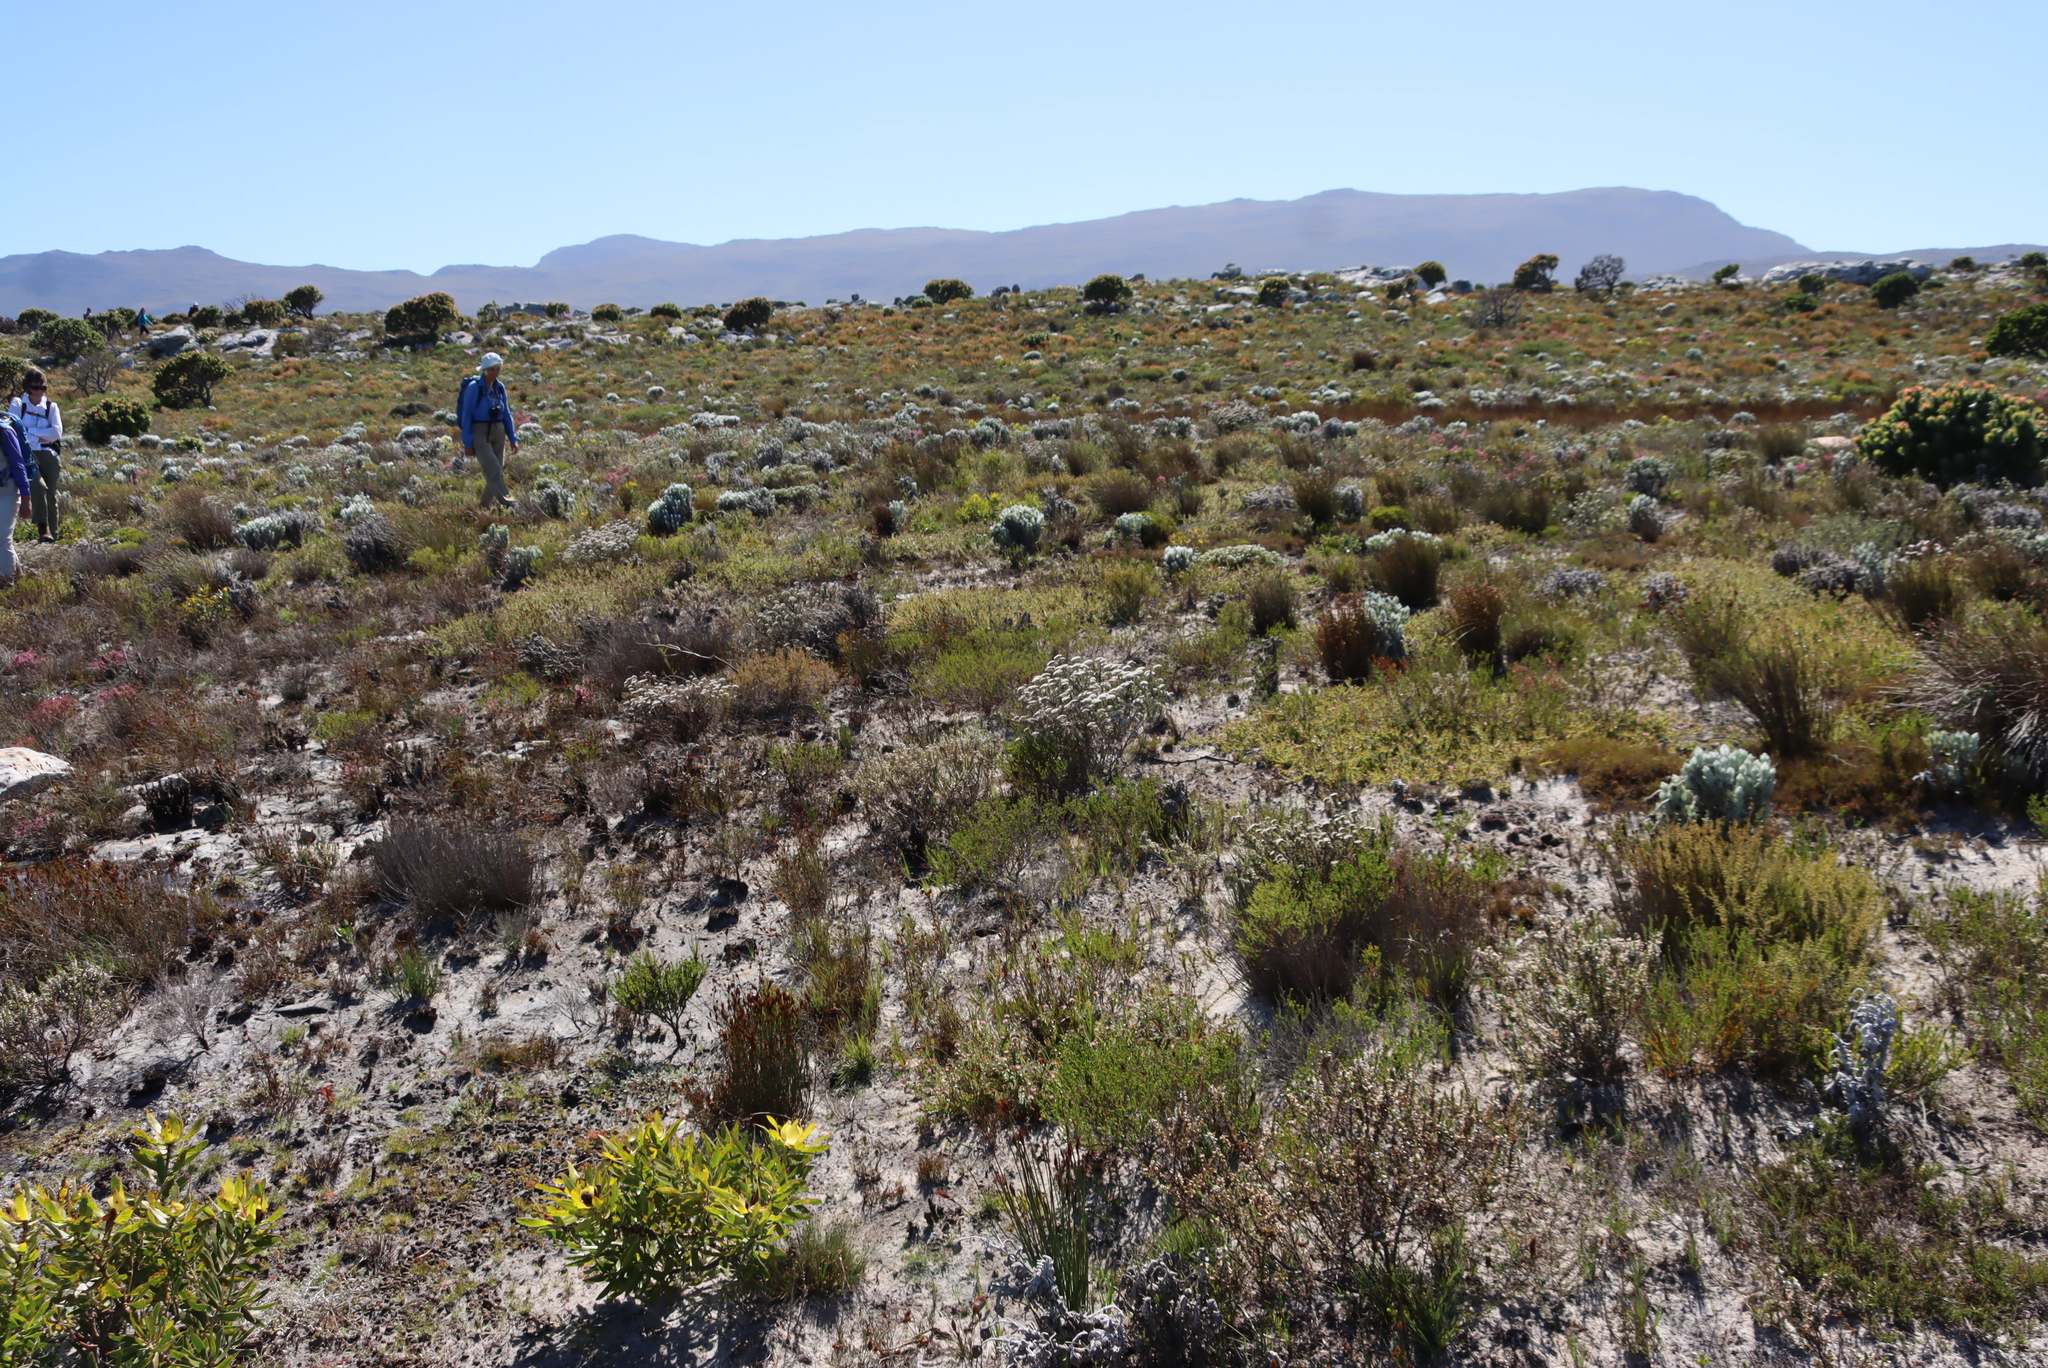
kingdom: Plantae
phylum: Tracheophyta
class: Magnoliopsida
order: Proteales
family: Proteaceae
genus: Diastella
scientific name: Diastella divaricata
